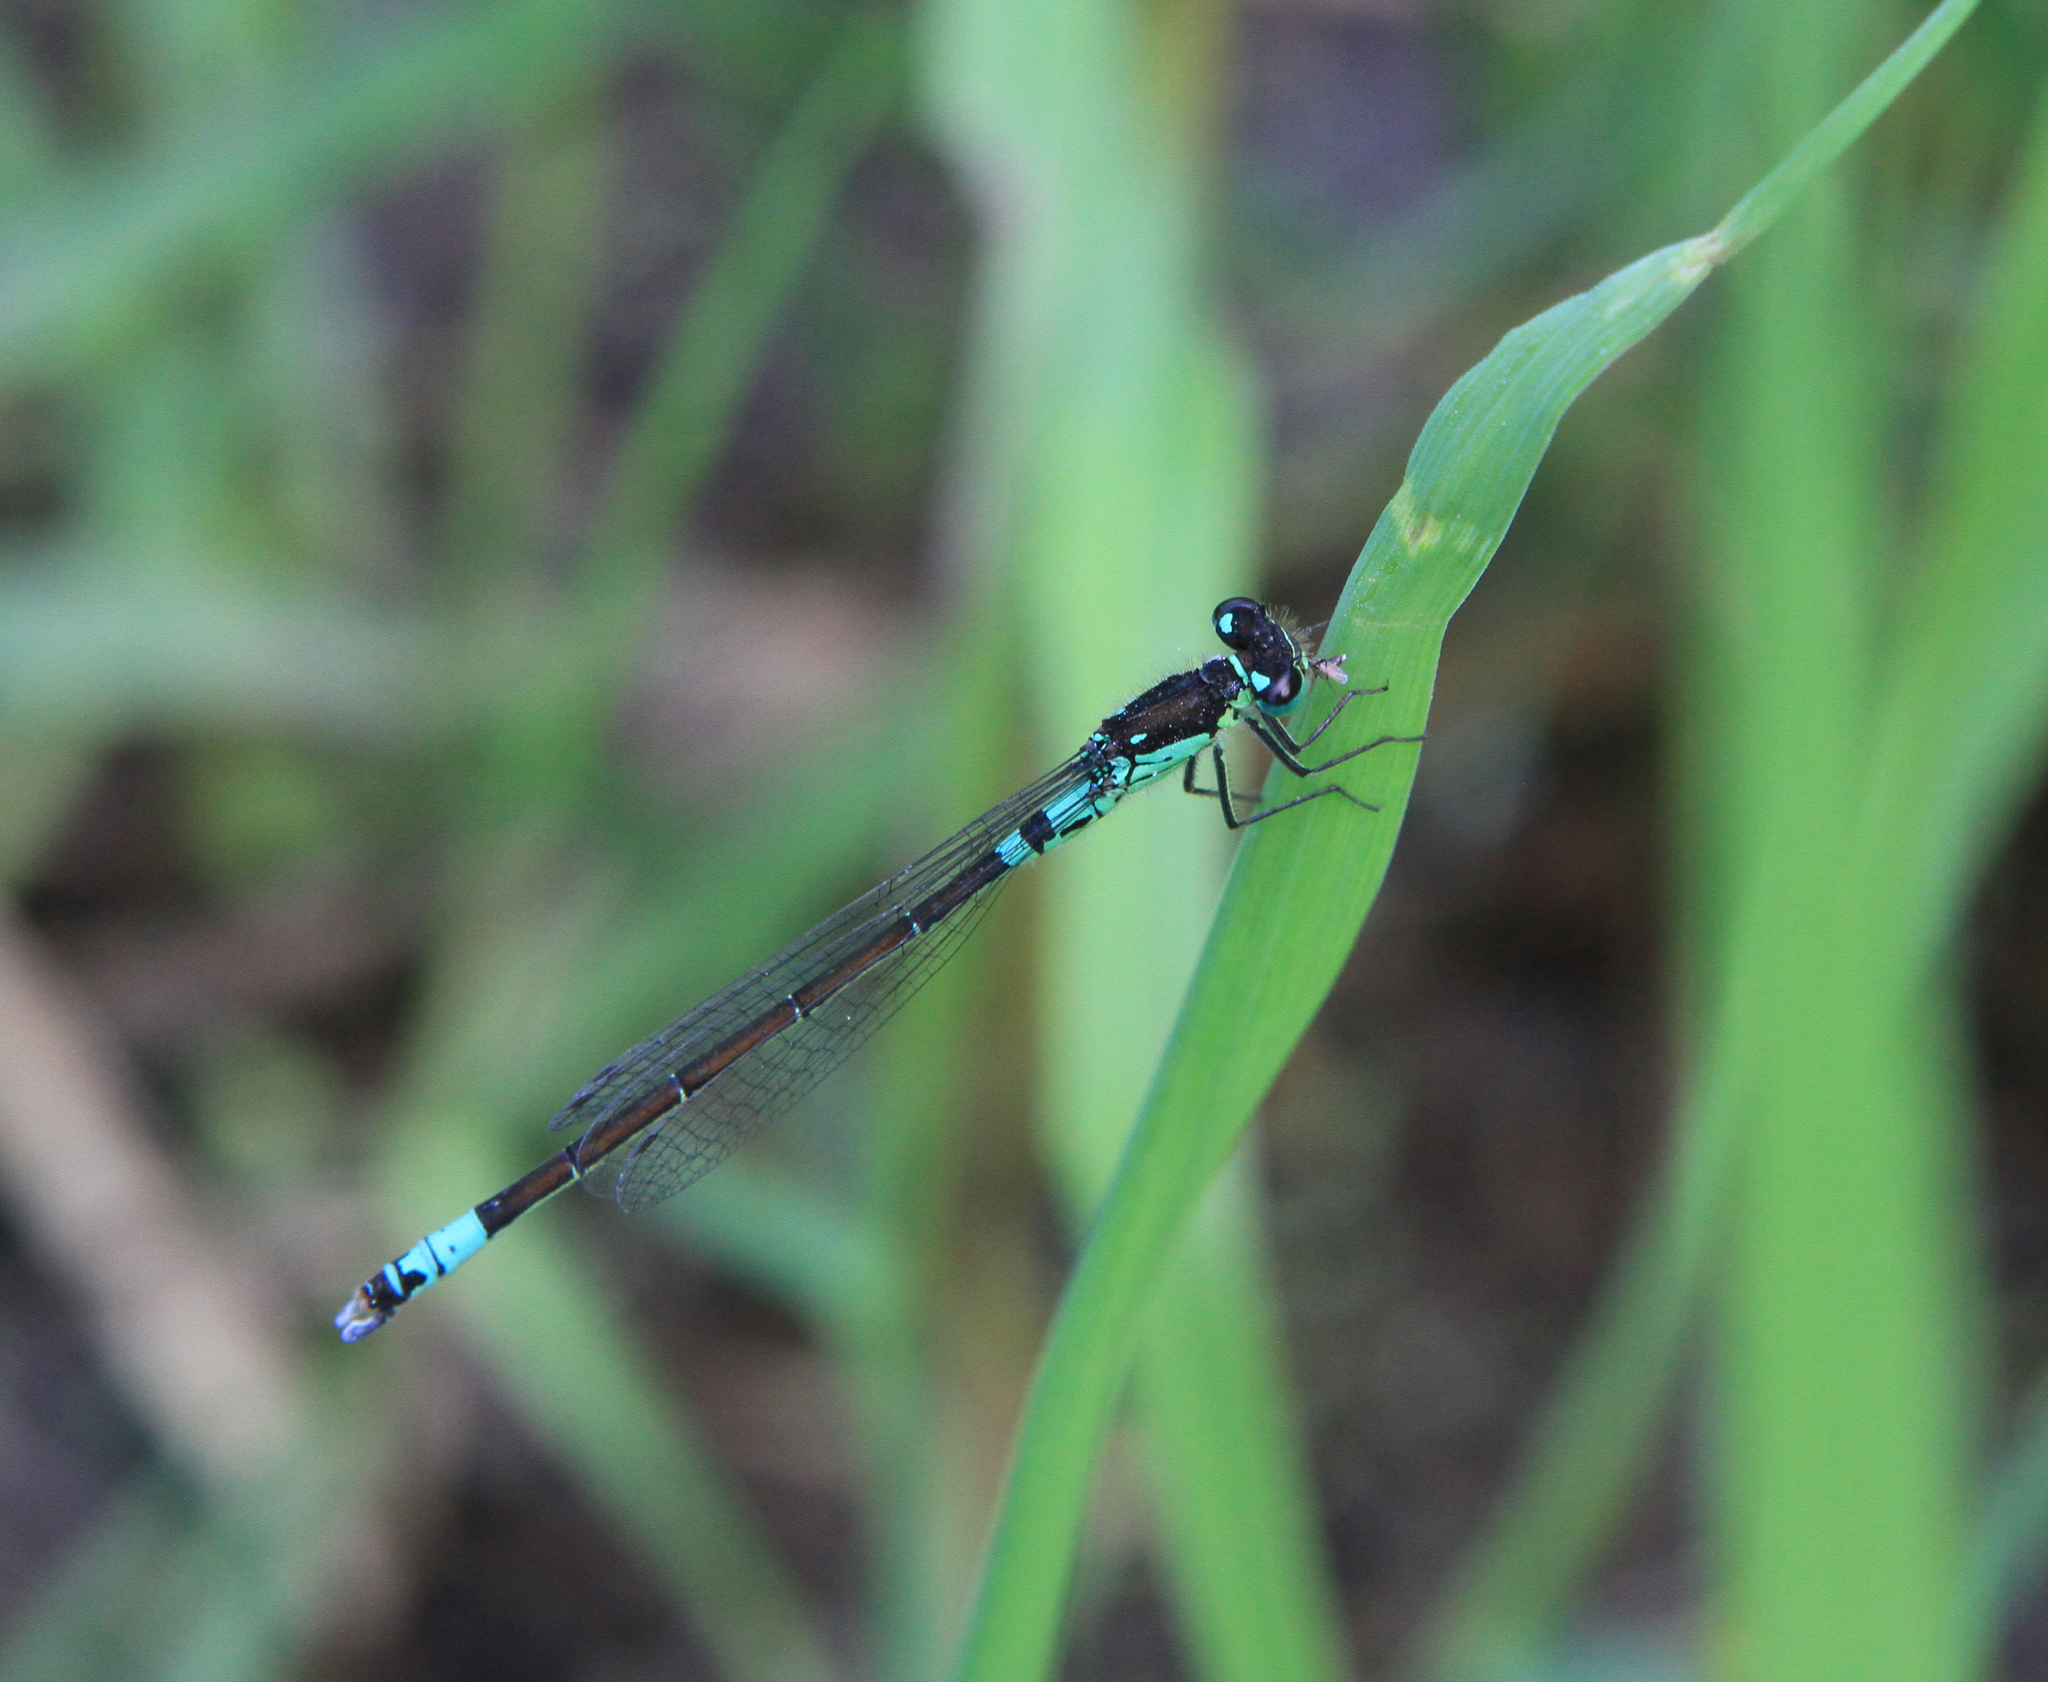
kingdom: Animalia
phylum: Arthropoda
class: Insecta
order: Odonata
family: Coenagrionidae
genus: Coenagrion
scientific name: Coenagrion armatum
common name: Dark bluet
